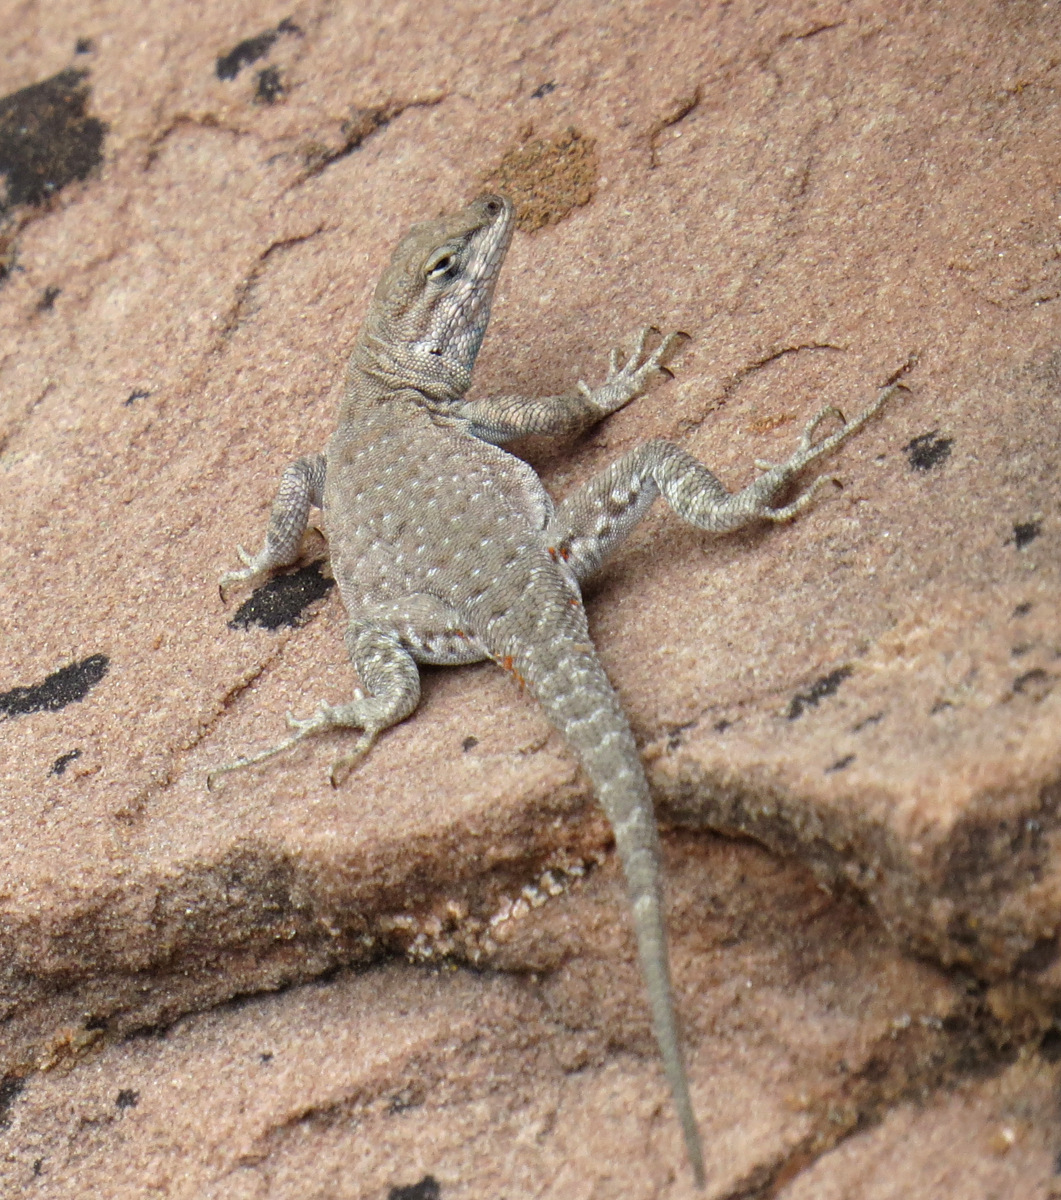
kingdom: Animalia
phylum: Chordata
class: Squamata
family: Phrynosomatidae
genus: Uta
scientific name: Uta stansburiana
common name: Side-blotched lizard
